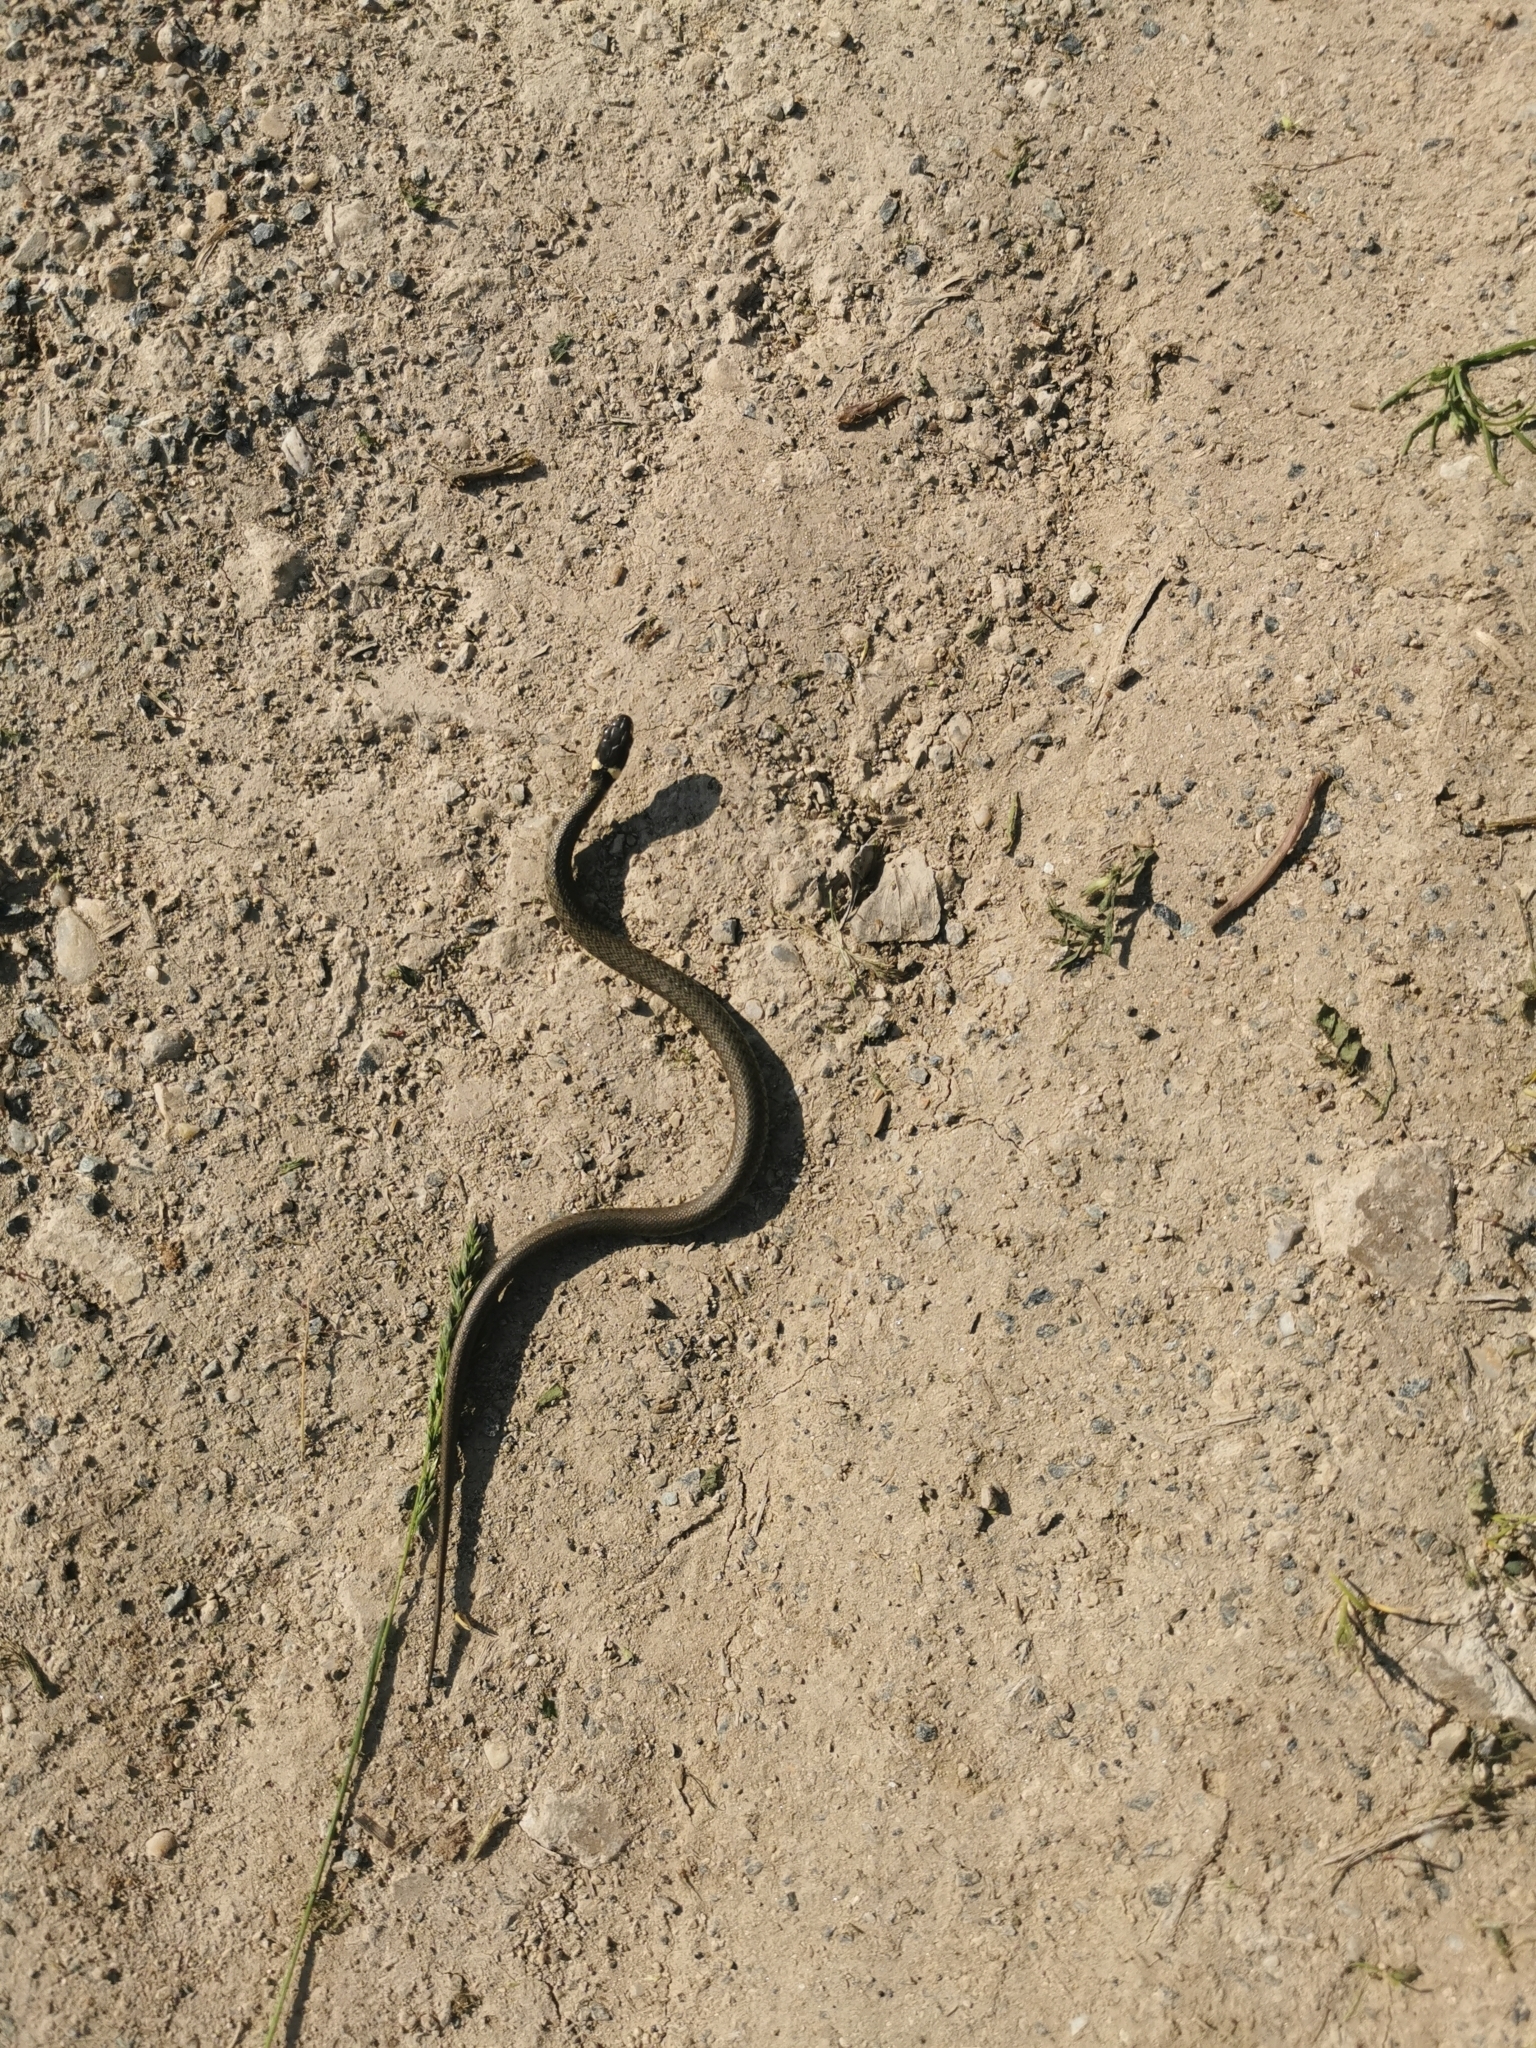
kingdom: Animalia
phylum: Chordata
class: Squamata
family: Colubridae
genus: Natrix
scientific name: Natrix natrix
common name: Grass snake
